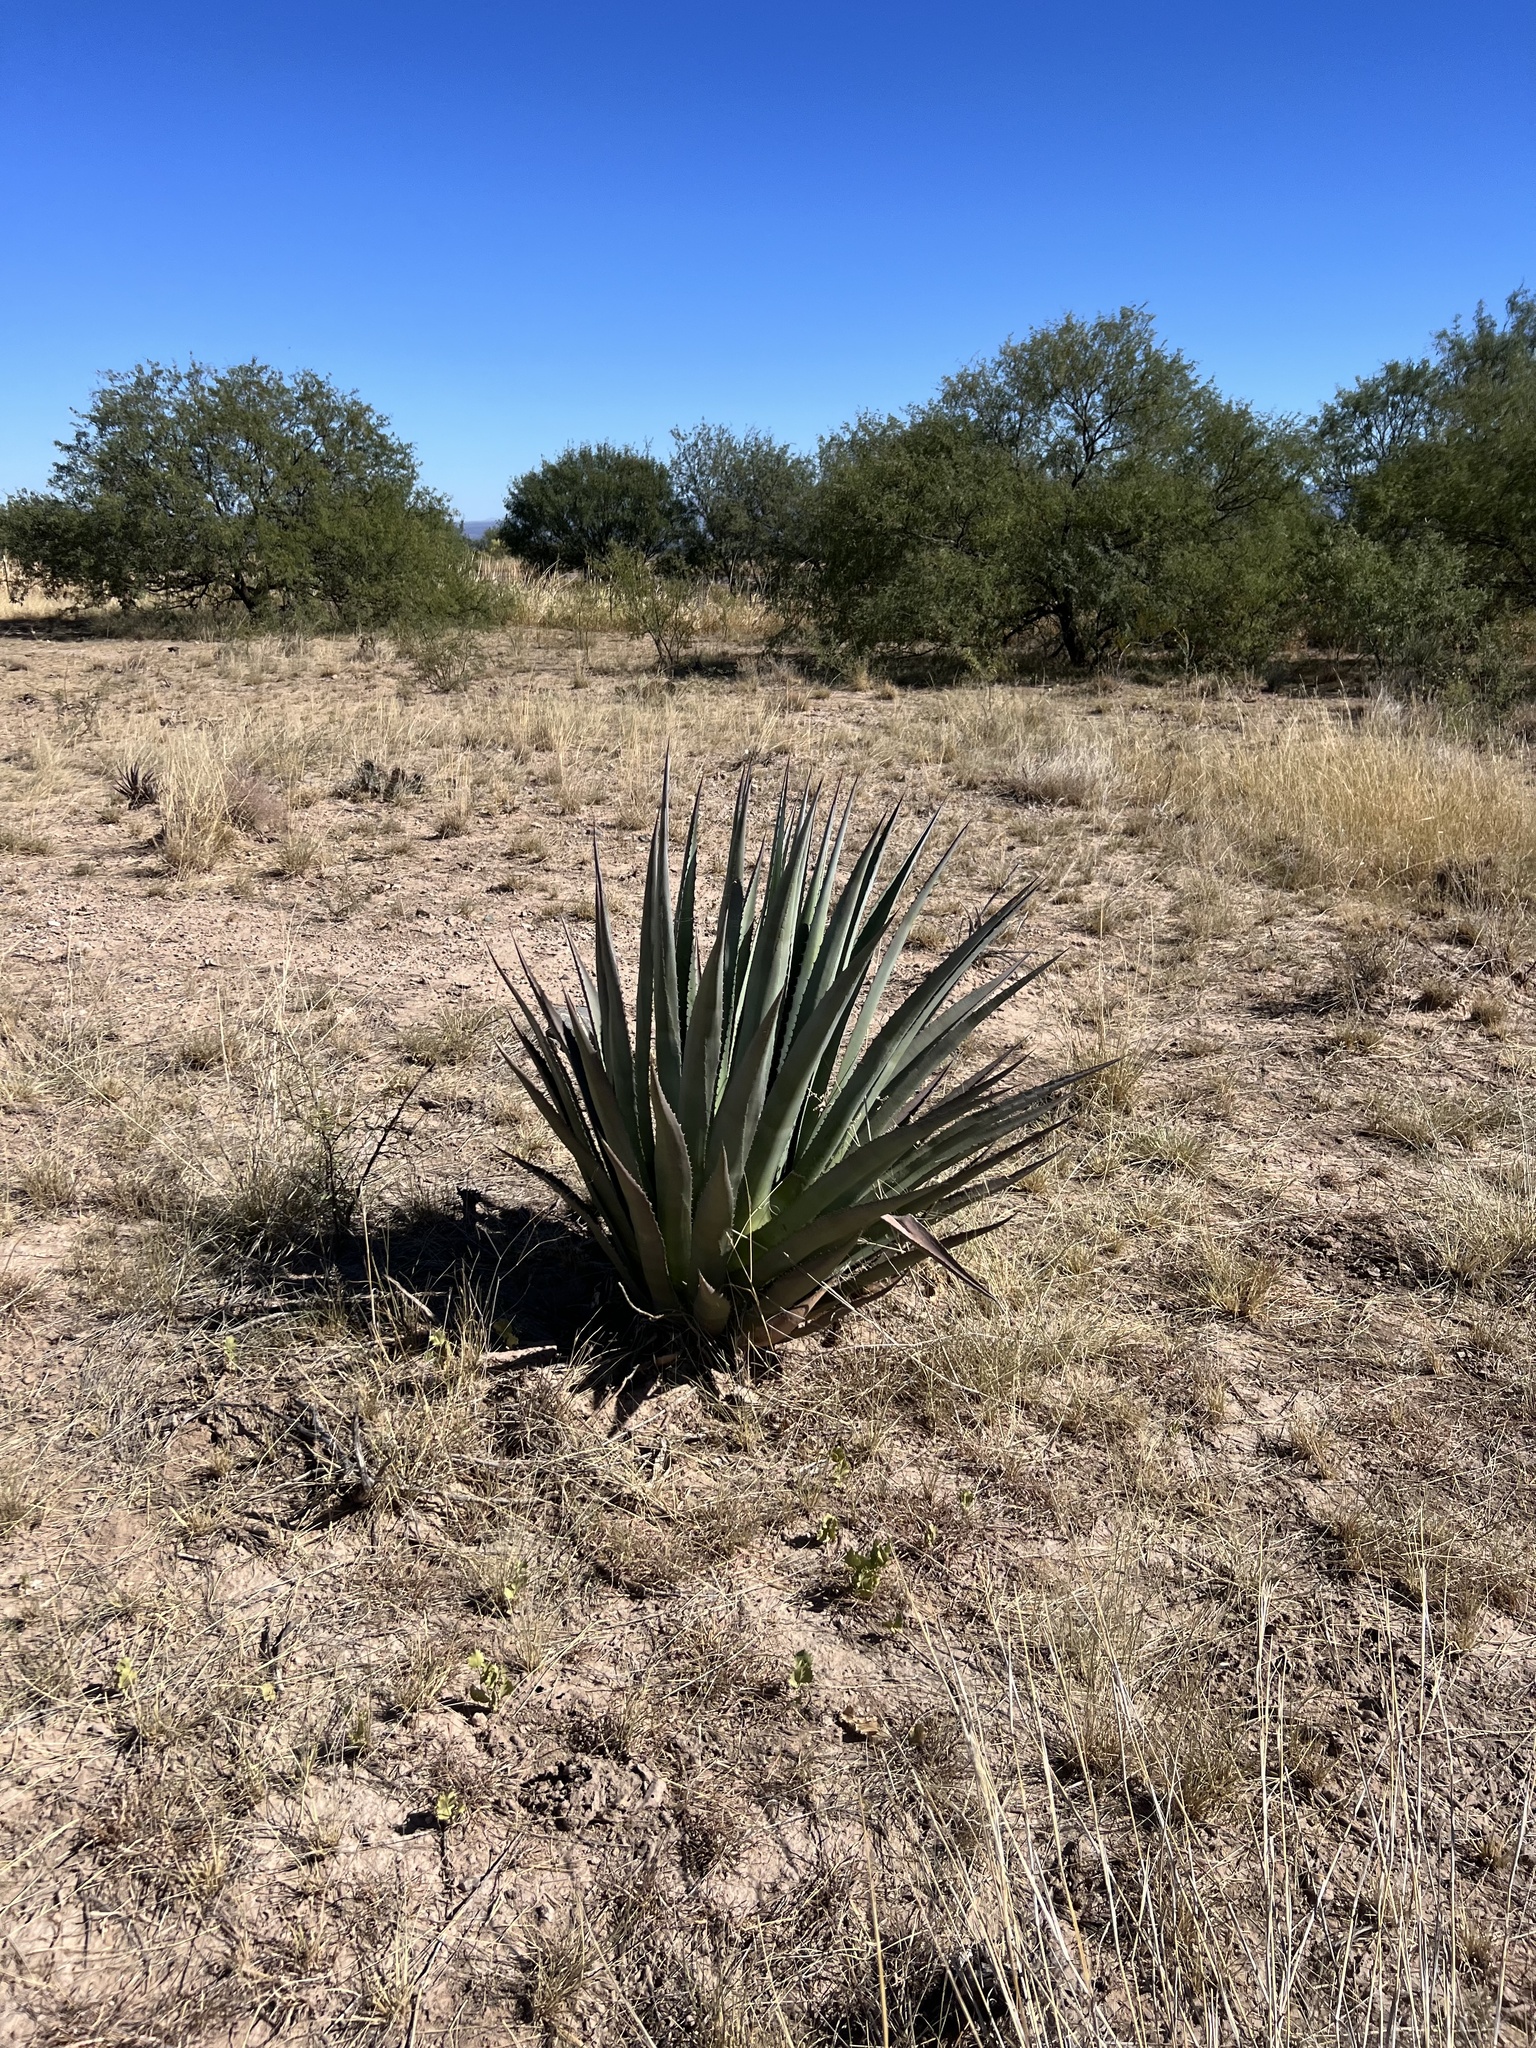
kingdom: Plantae
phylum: Tracheophyta
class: Liliopsida
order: Asparagales
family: Asparagaceae
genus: Agave
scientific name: Agave palmeri
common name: Palmer agave
